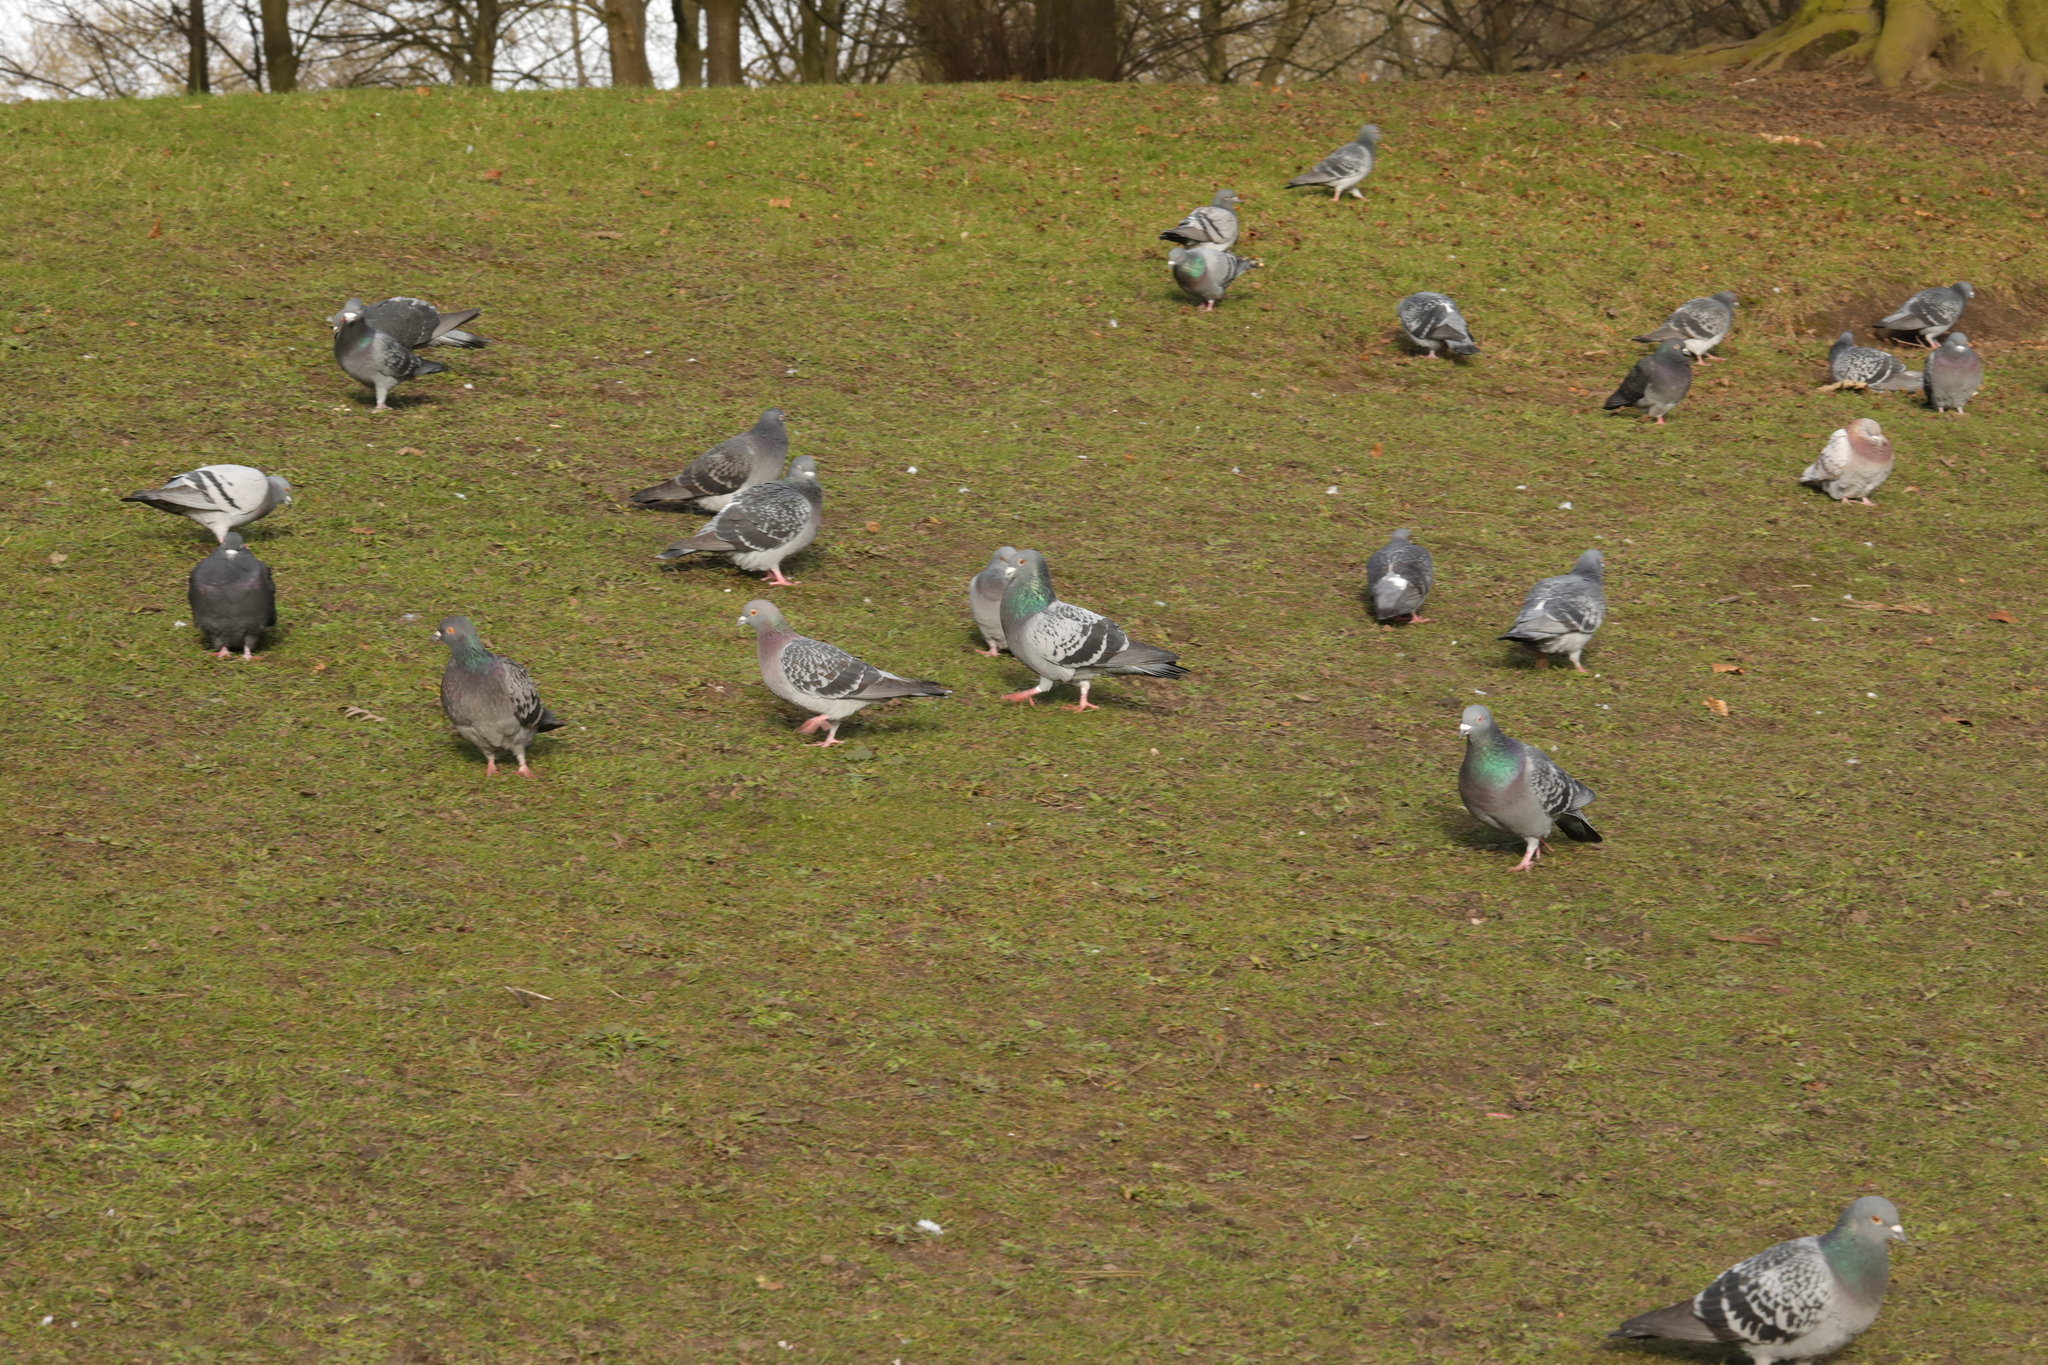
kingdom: Animalia
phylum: Chordata
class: Aves
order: Columbiformes
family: Columbidae
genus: Columba
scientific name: Columba livia
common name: Rock pigeon
